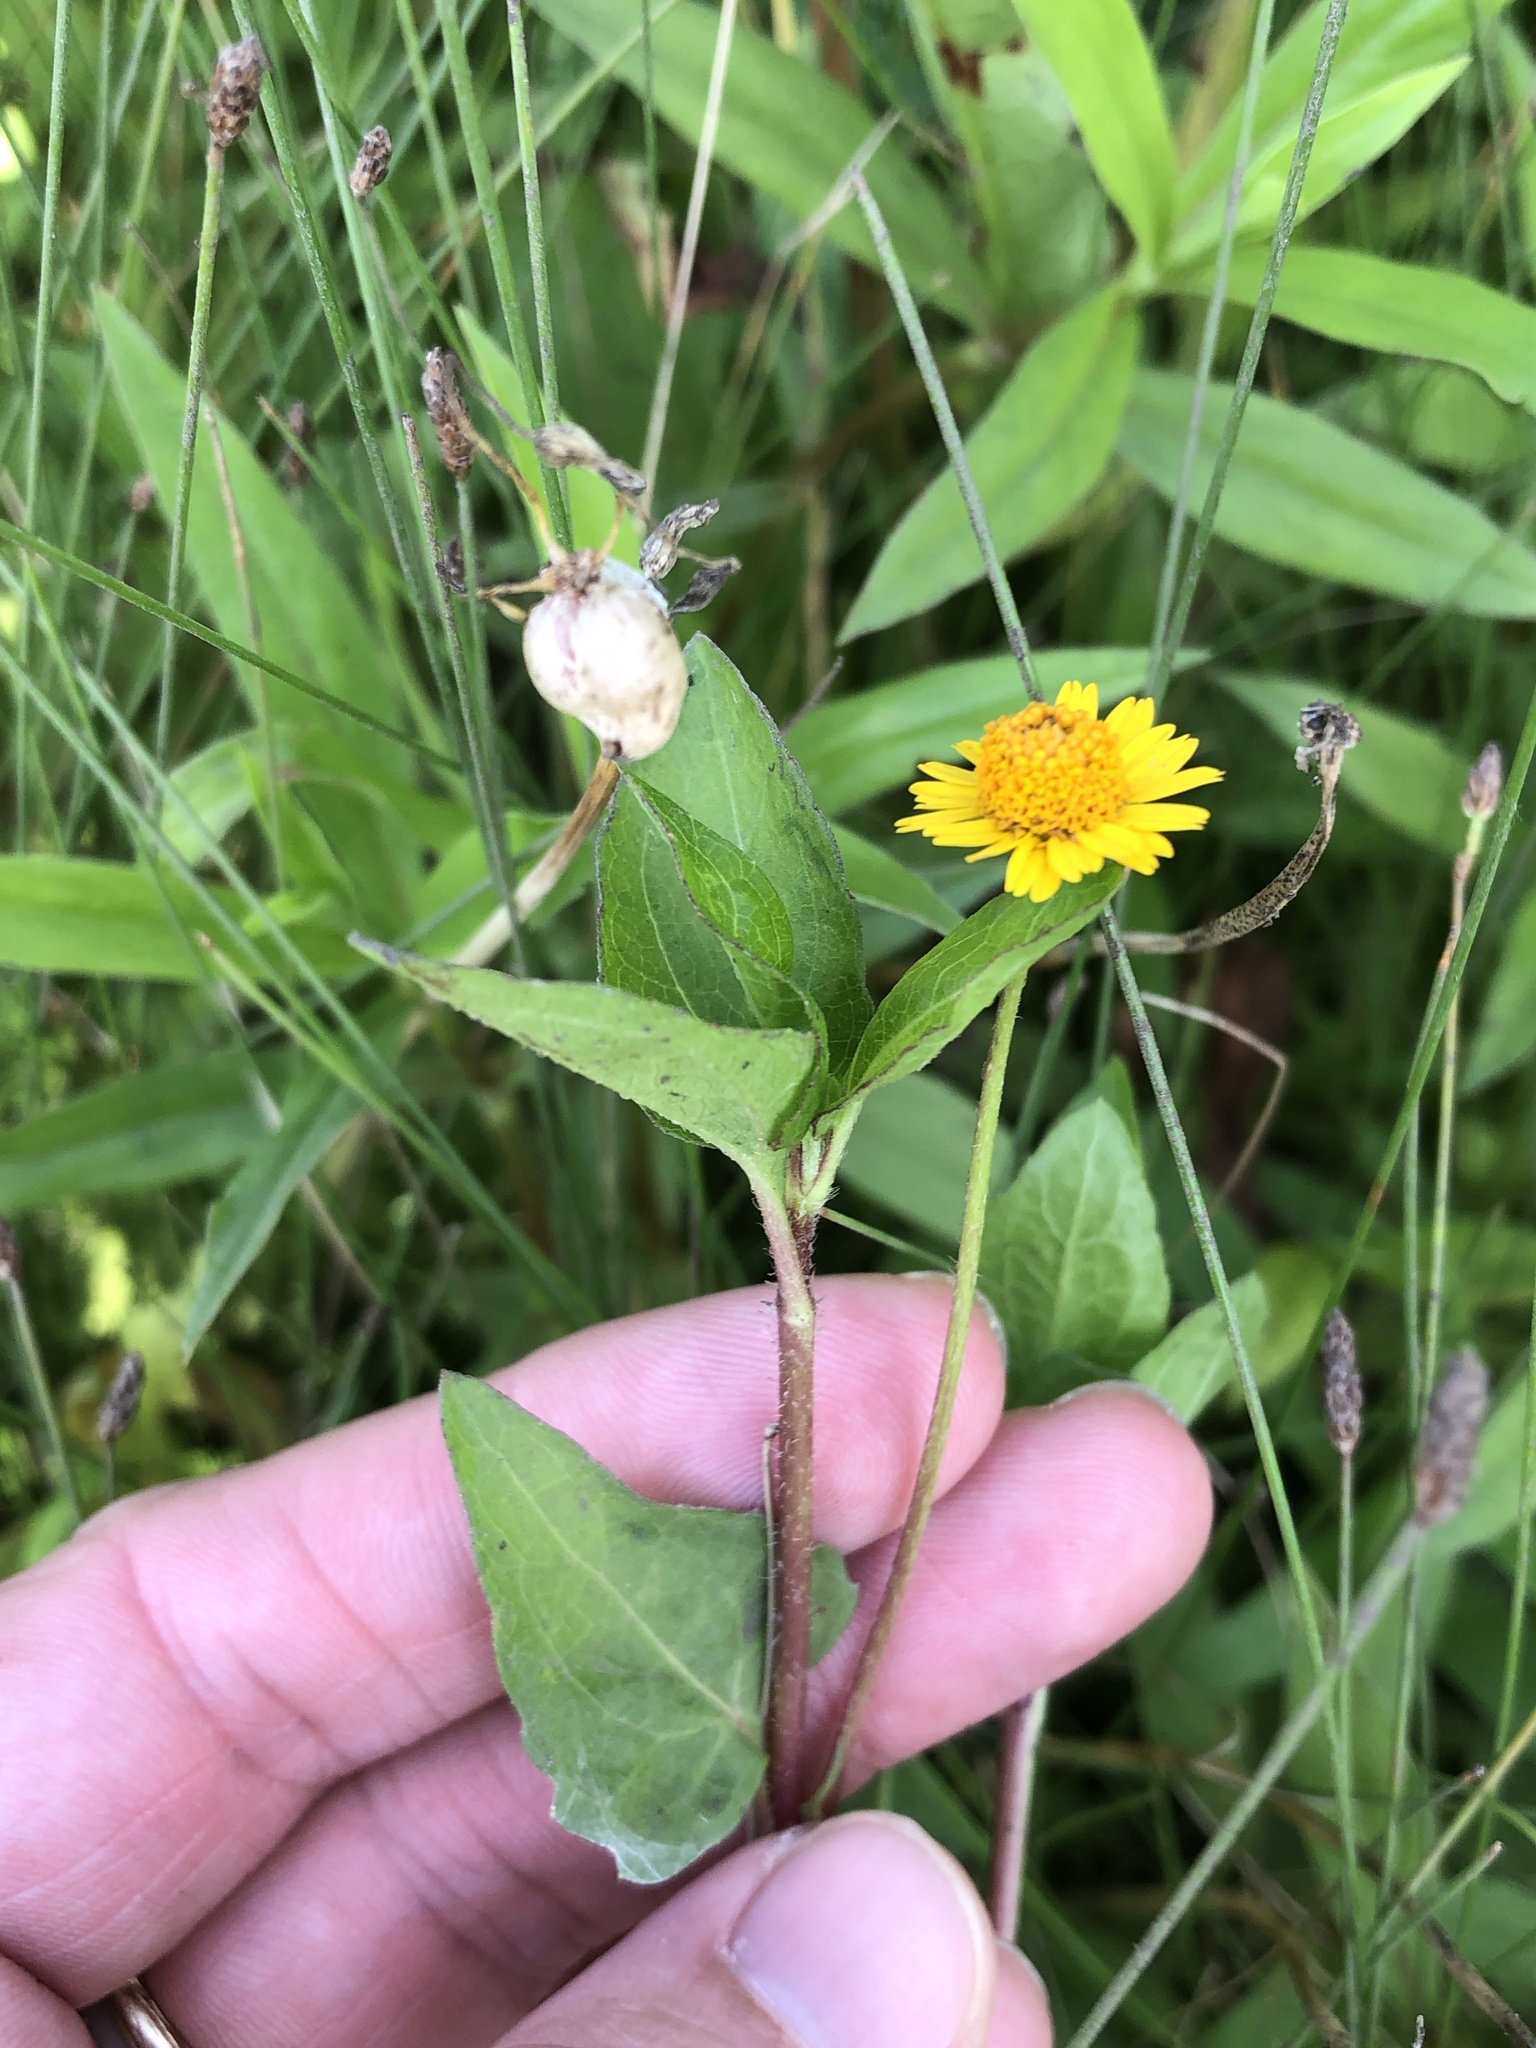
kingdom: Plantae
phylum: Tracheophyta
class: Magnoliopsida
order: Asterales
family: Asteraceae
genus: Acmella
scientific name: Acmella repens
